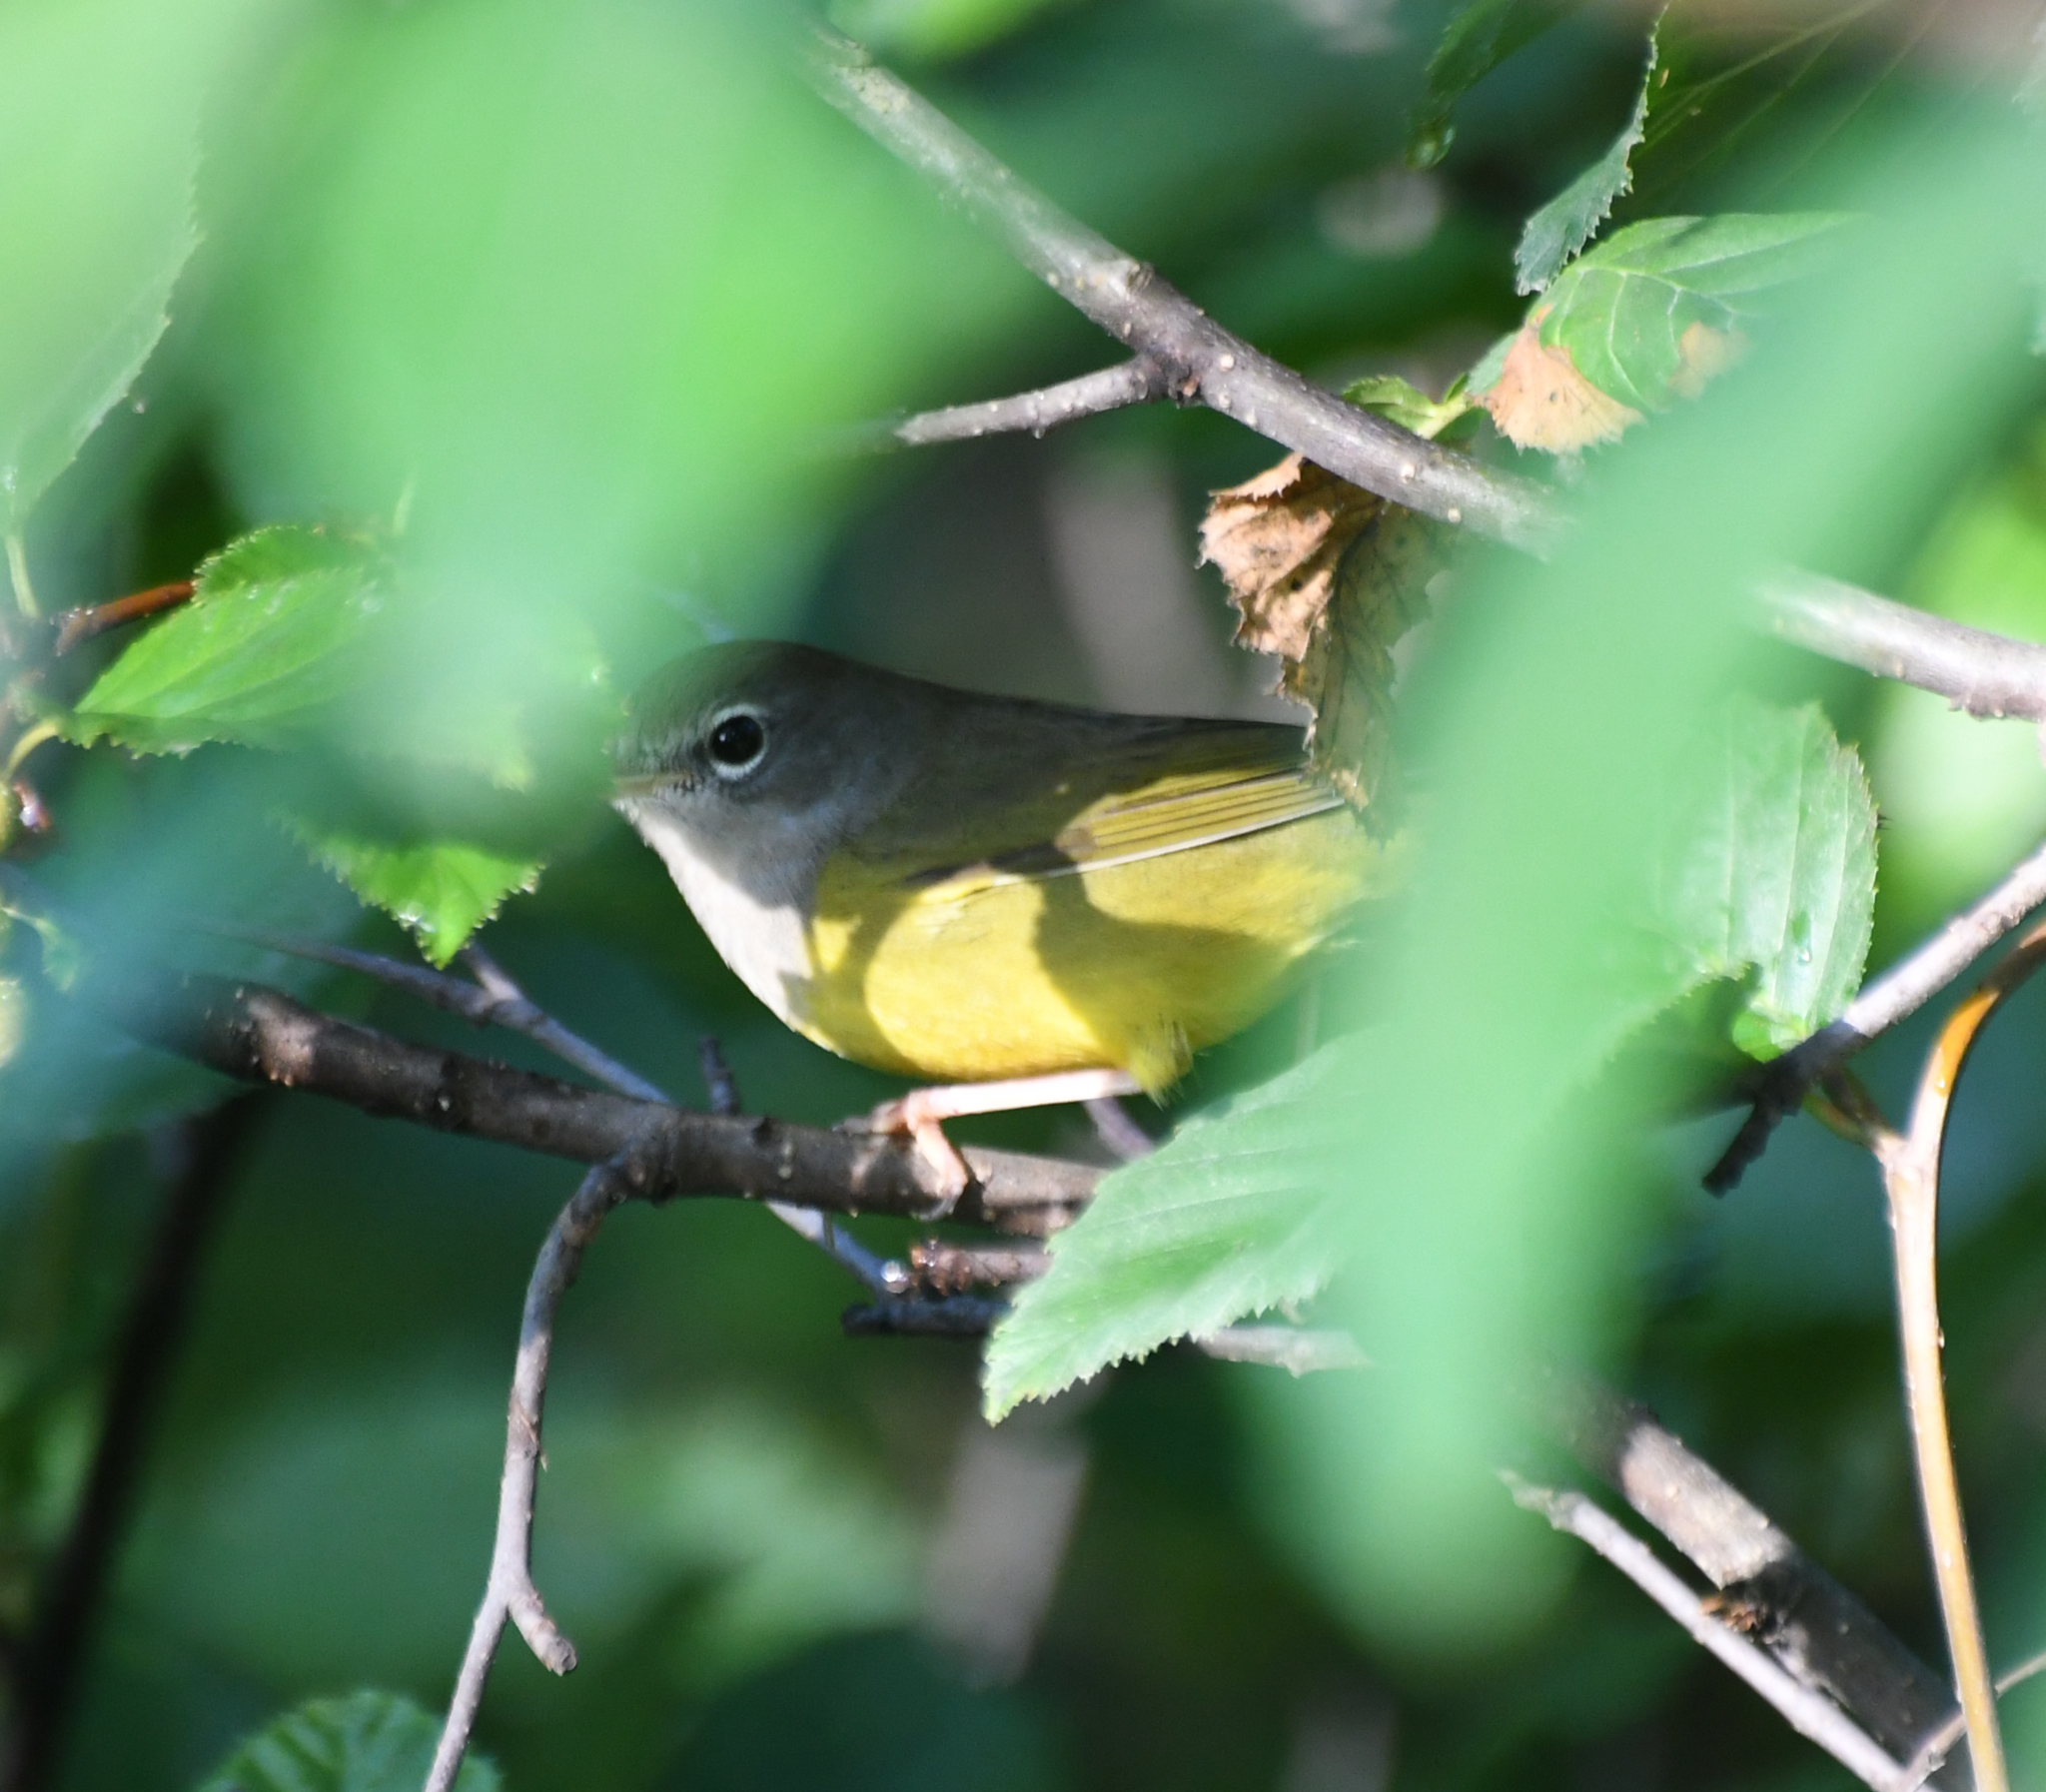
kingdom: Animalia
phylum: Chordata
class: Aves
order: Passeriformes
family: Parulidae
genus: Geothlypis
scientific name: Geothlypis tolmiei
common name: Macgillivray's warbler
